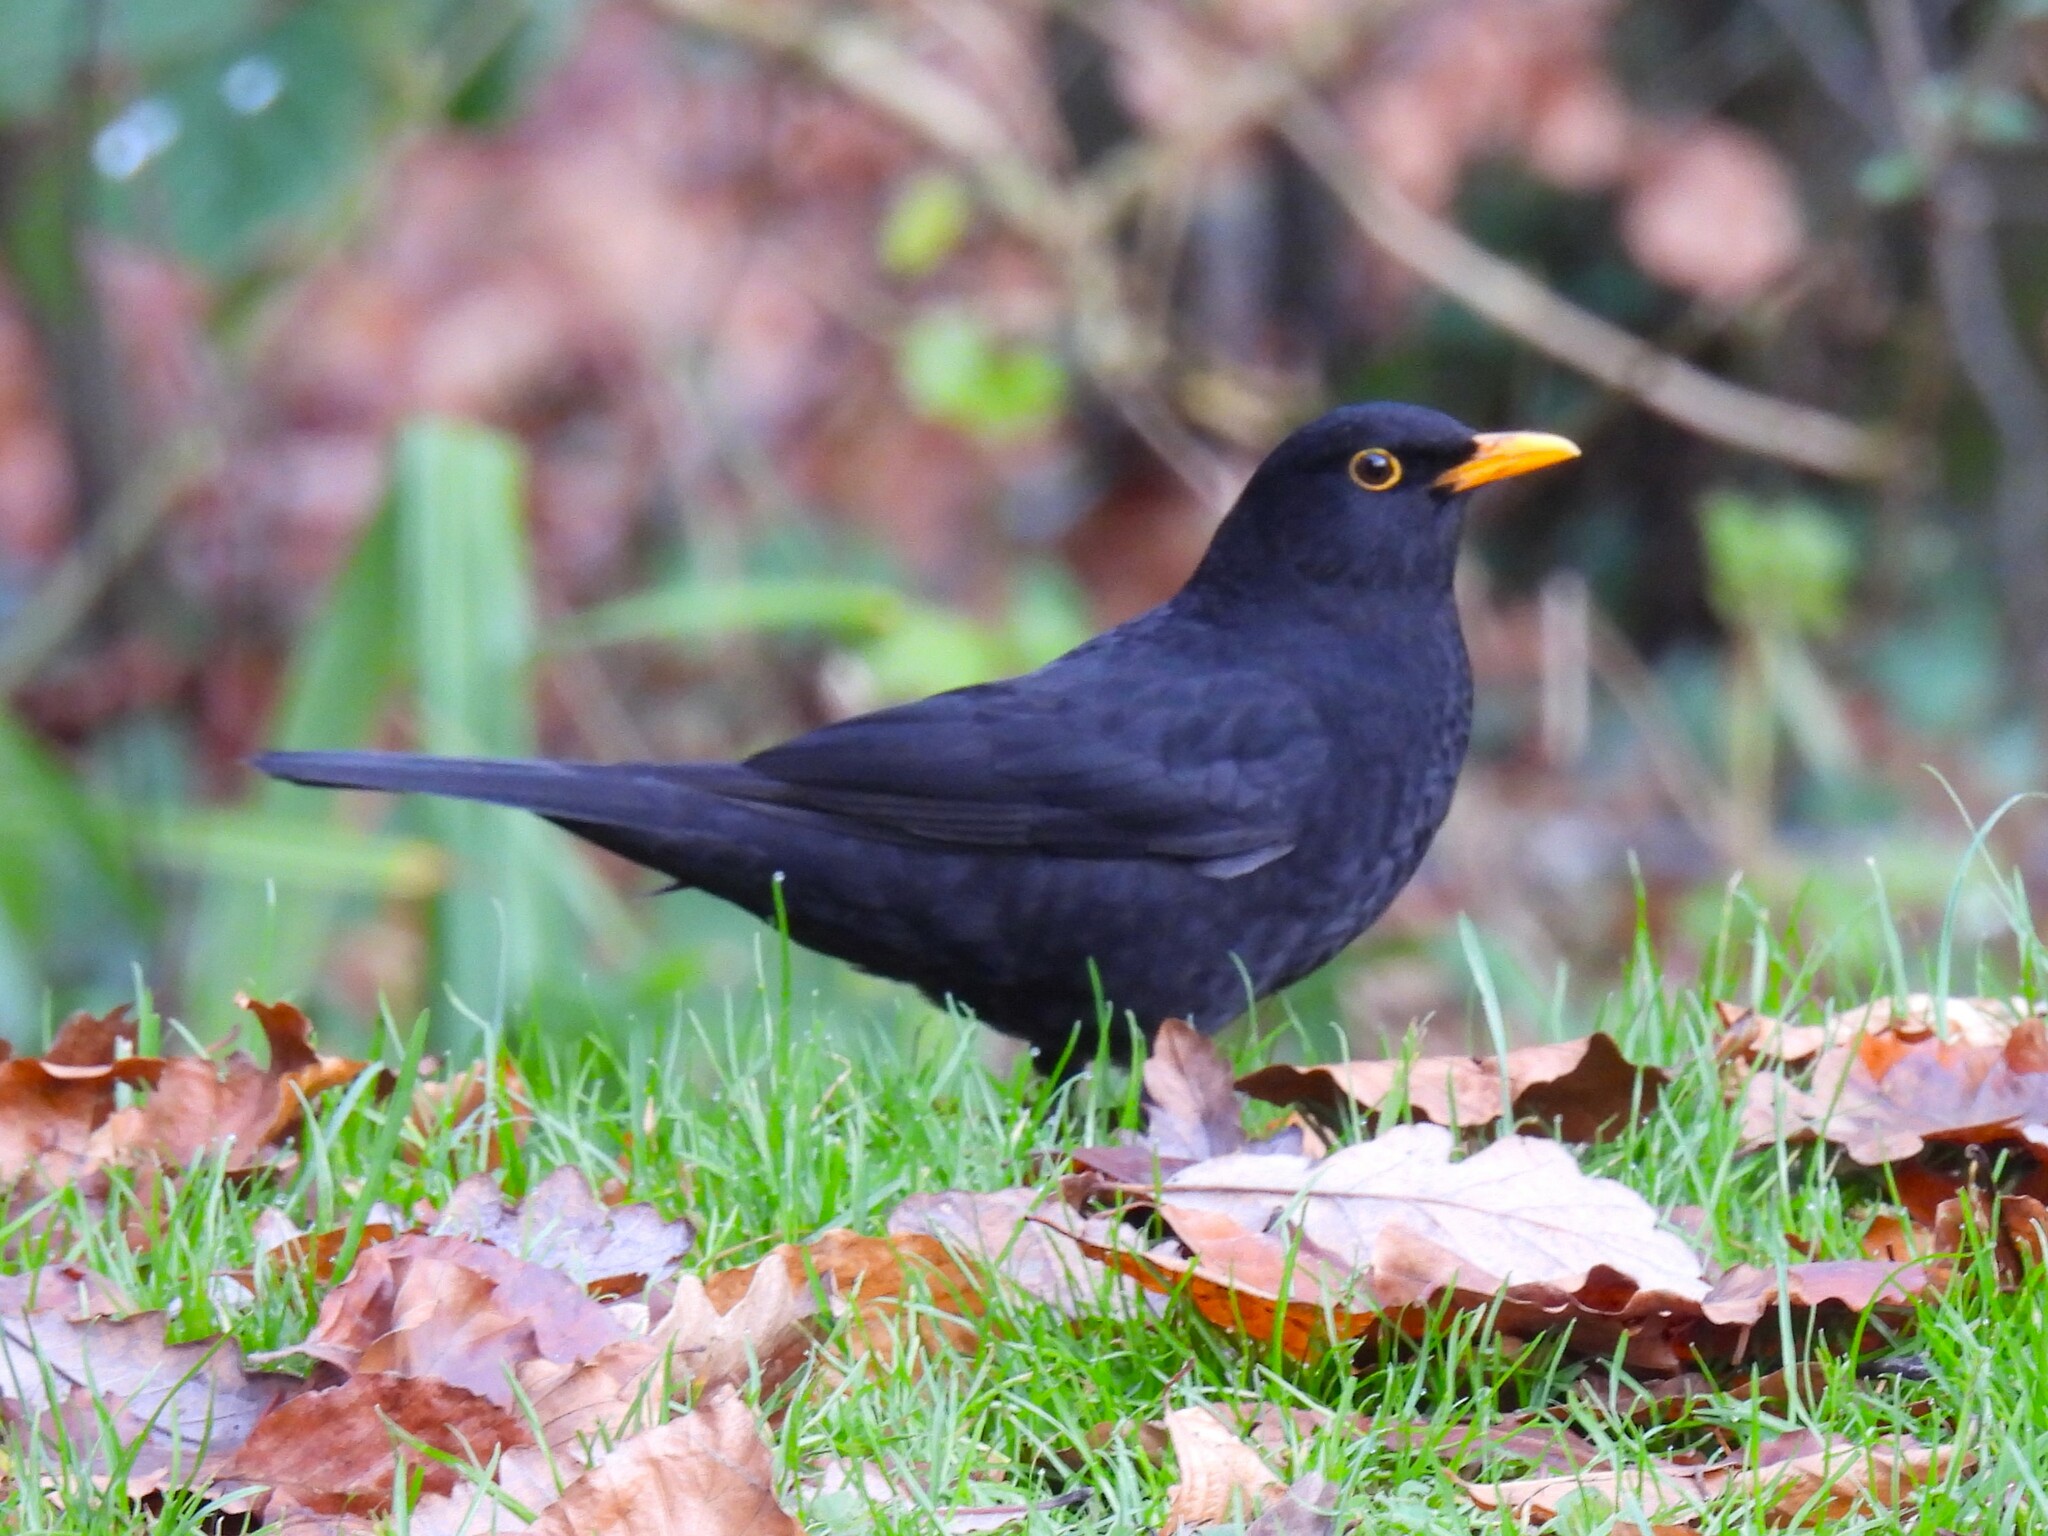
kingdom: Animalia
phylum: Chordata
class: Aves
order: Passeriformes
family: Turdidae
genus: Turdus
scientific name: Turdus merula
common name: Common blackbird
